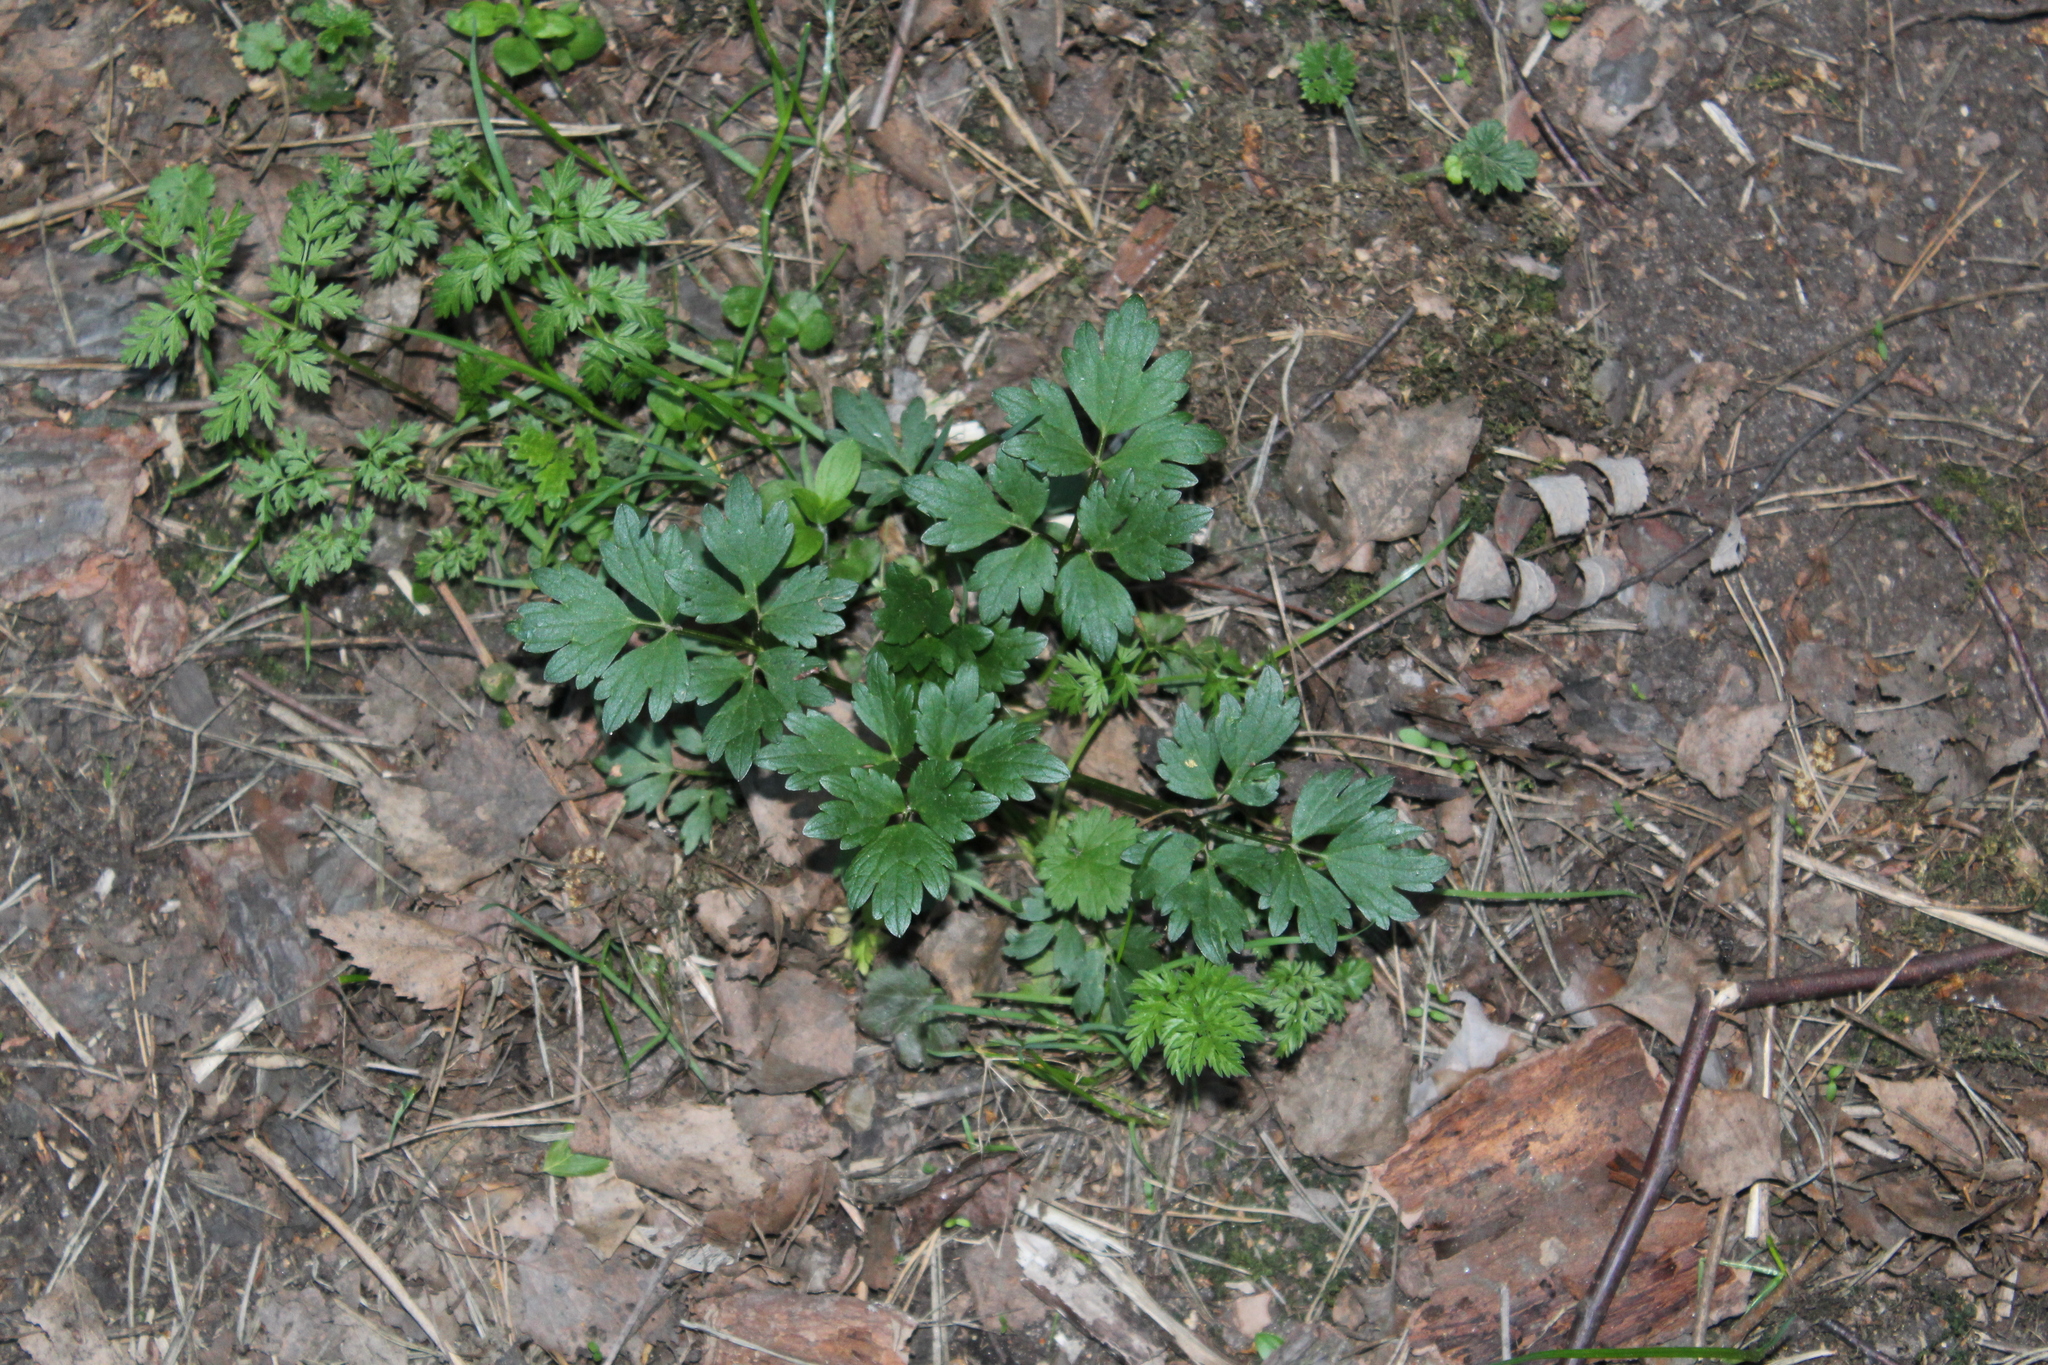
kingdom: Plantae
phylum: Tracheophyta
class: Magnoliopsida
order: Ranunculales
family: Ranunculaceae
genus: Ranunculus
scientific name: Ranunculus repens
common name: Creeping buttercup
